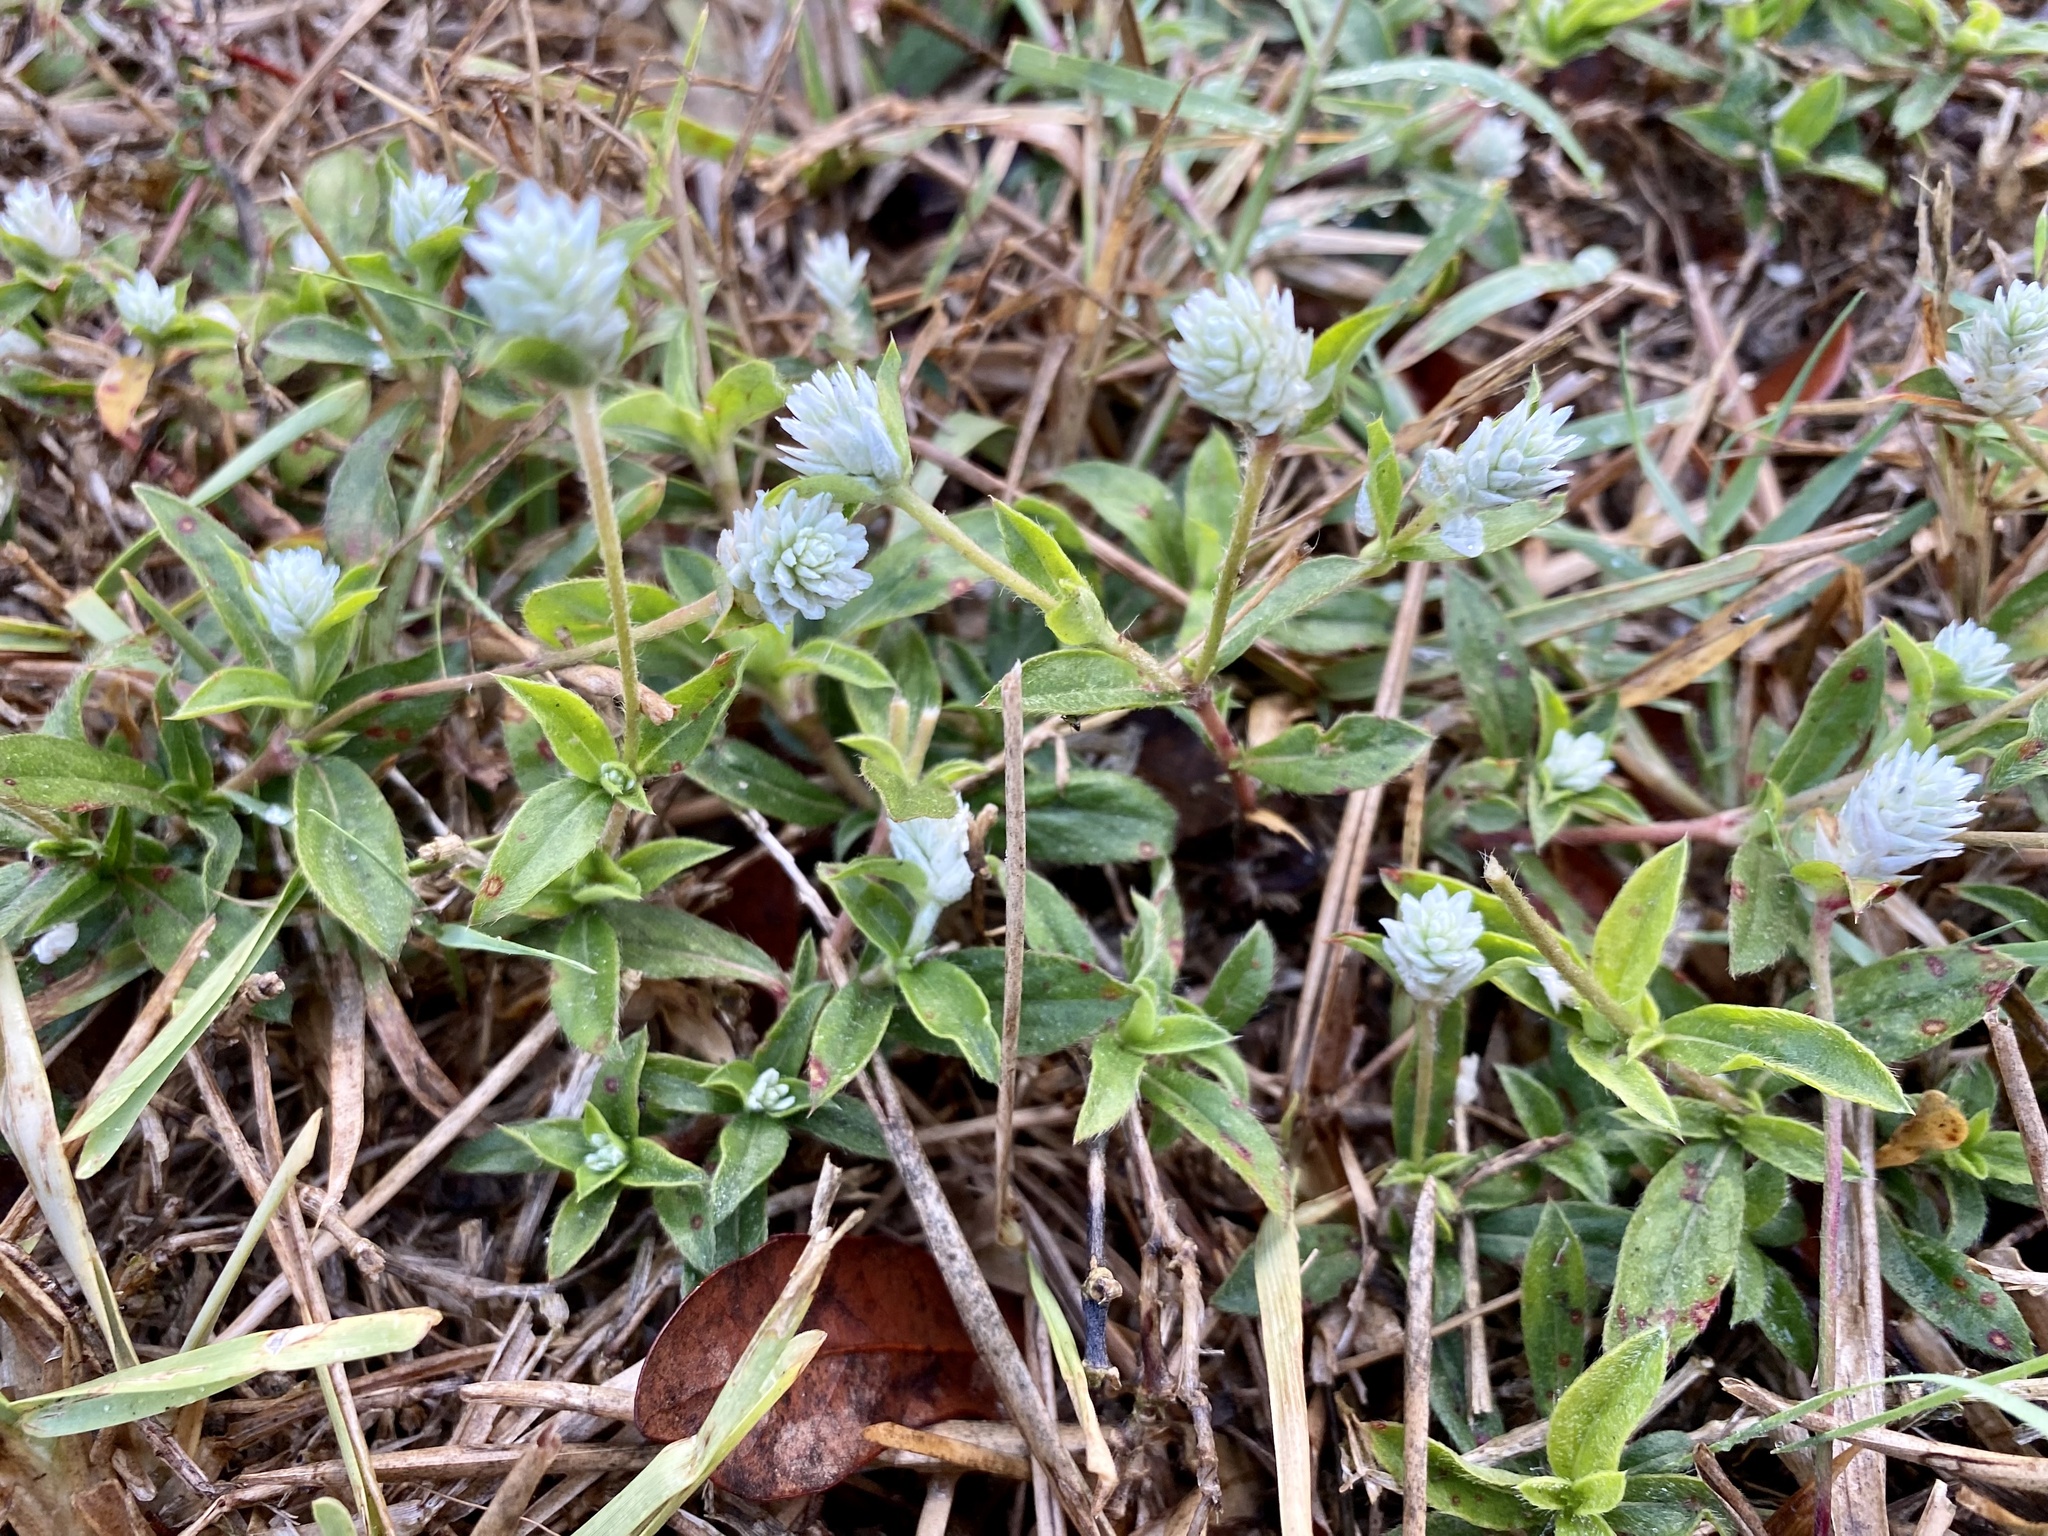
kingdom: Plantae
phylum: Tracheophyta
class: Magnoliopsida
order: Caryophyllales
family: Amaranthaceae
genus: Gomphrena
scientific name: Gomphrena serrata
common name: Arrasa con todo
